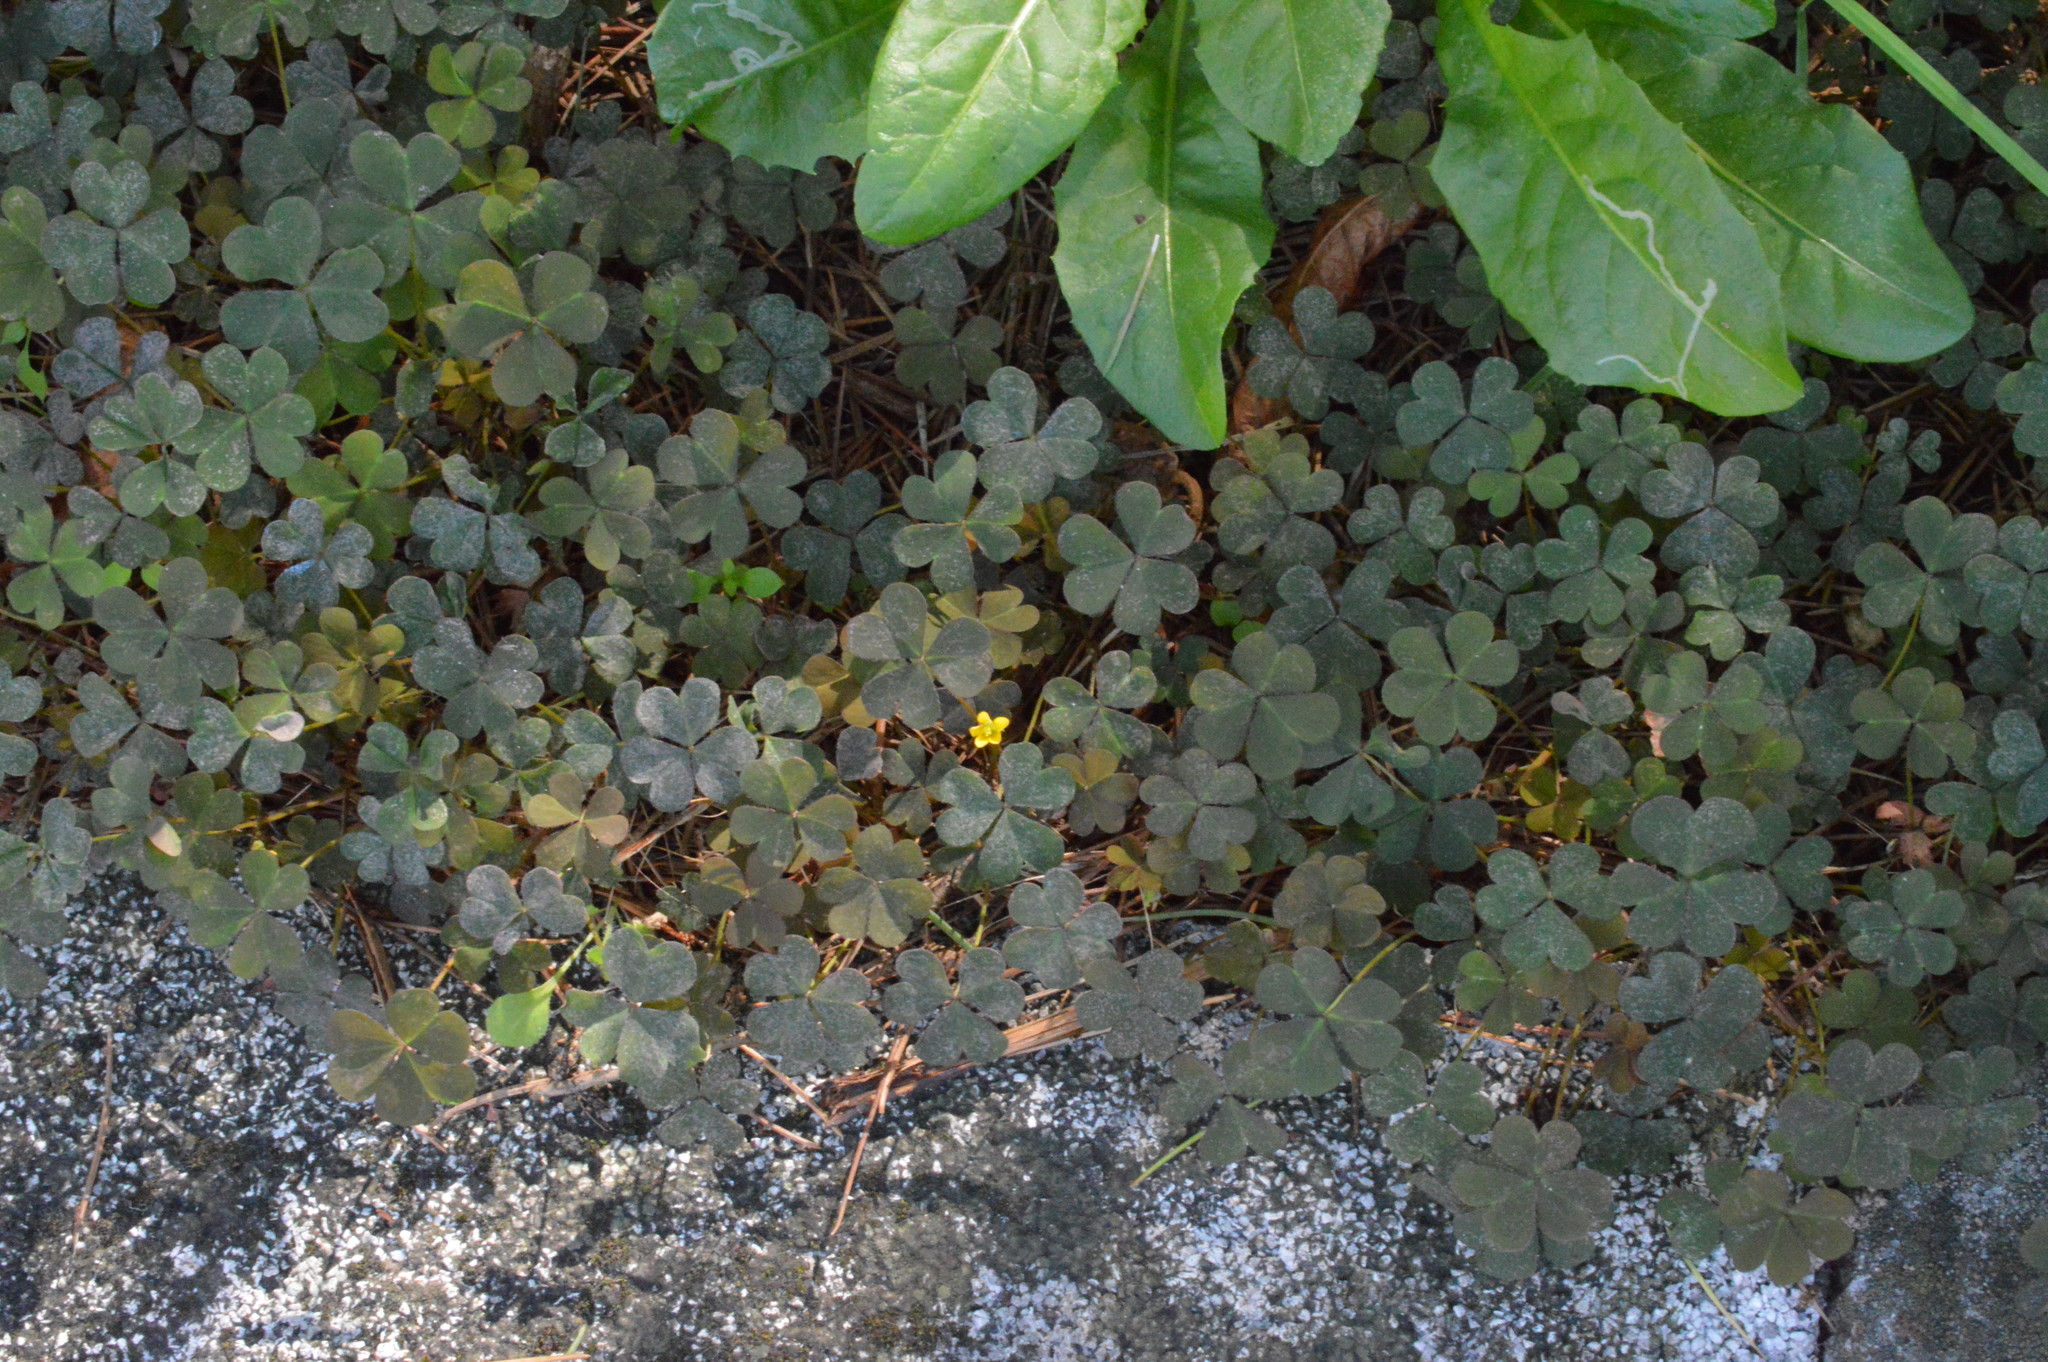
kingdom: Plantae
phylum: Tracheophyta
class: Magnoliopsida
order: Oxalidales
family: Oxalidaceae
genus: Oxalis
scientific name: Oxalis corniculata
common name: Procumbent yellow-sorrel
